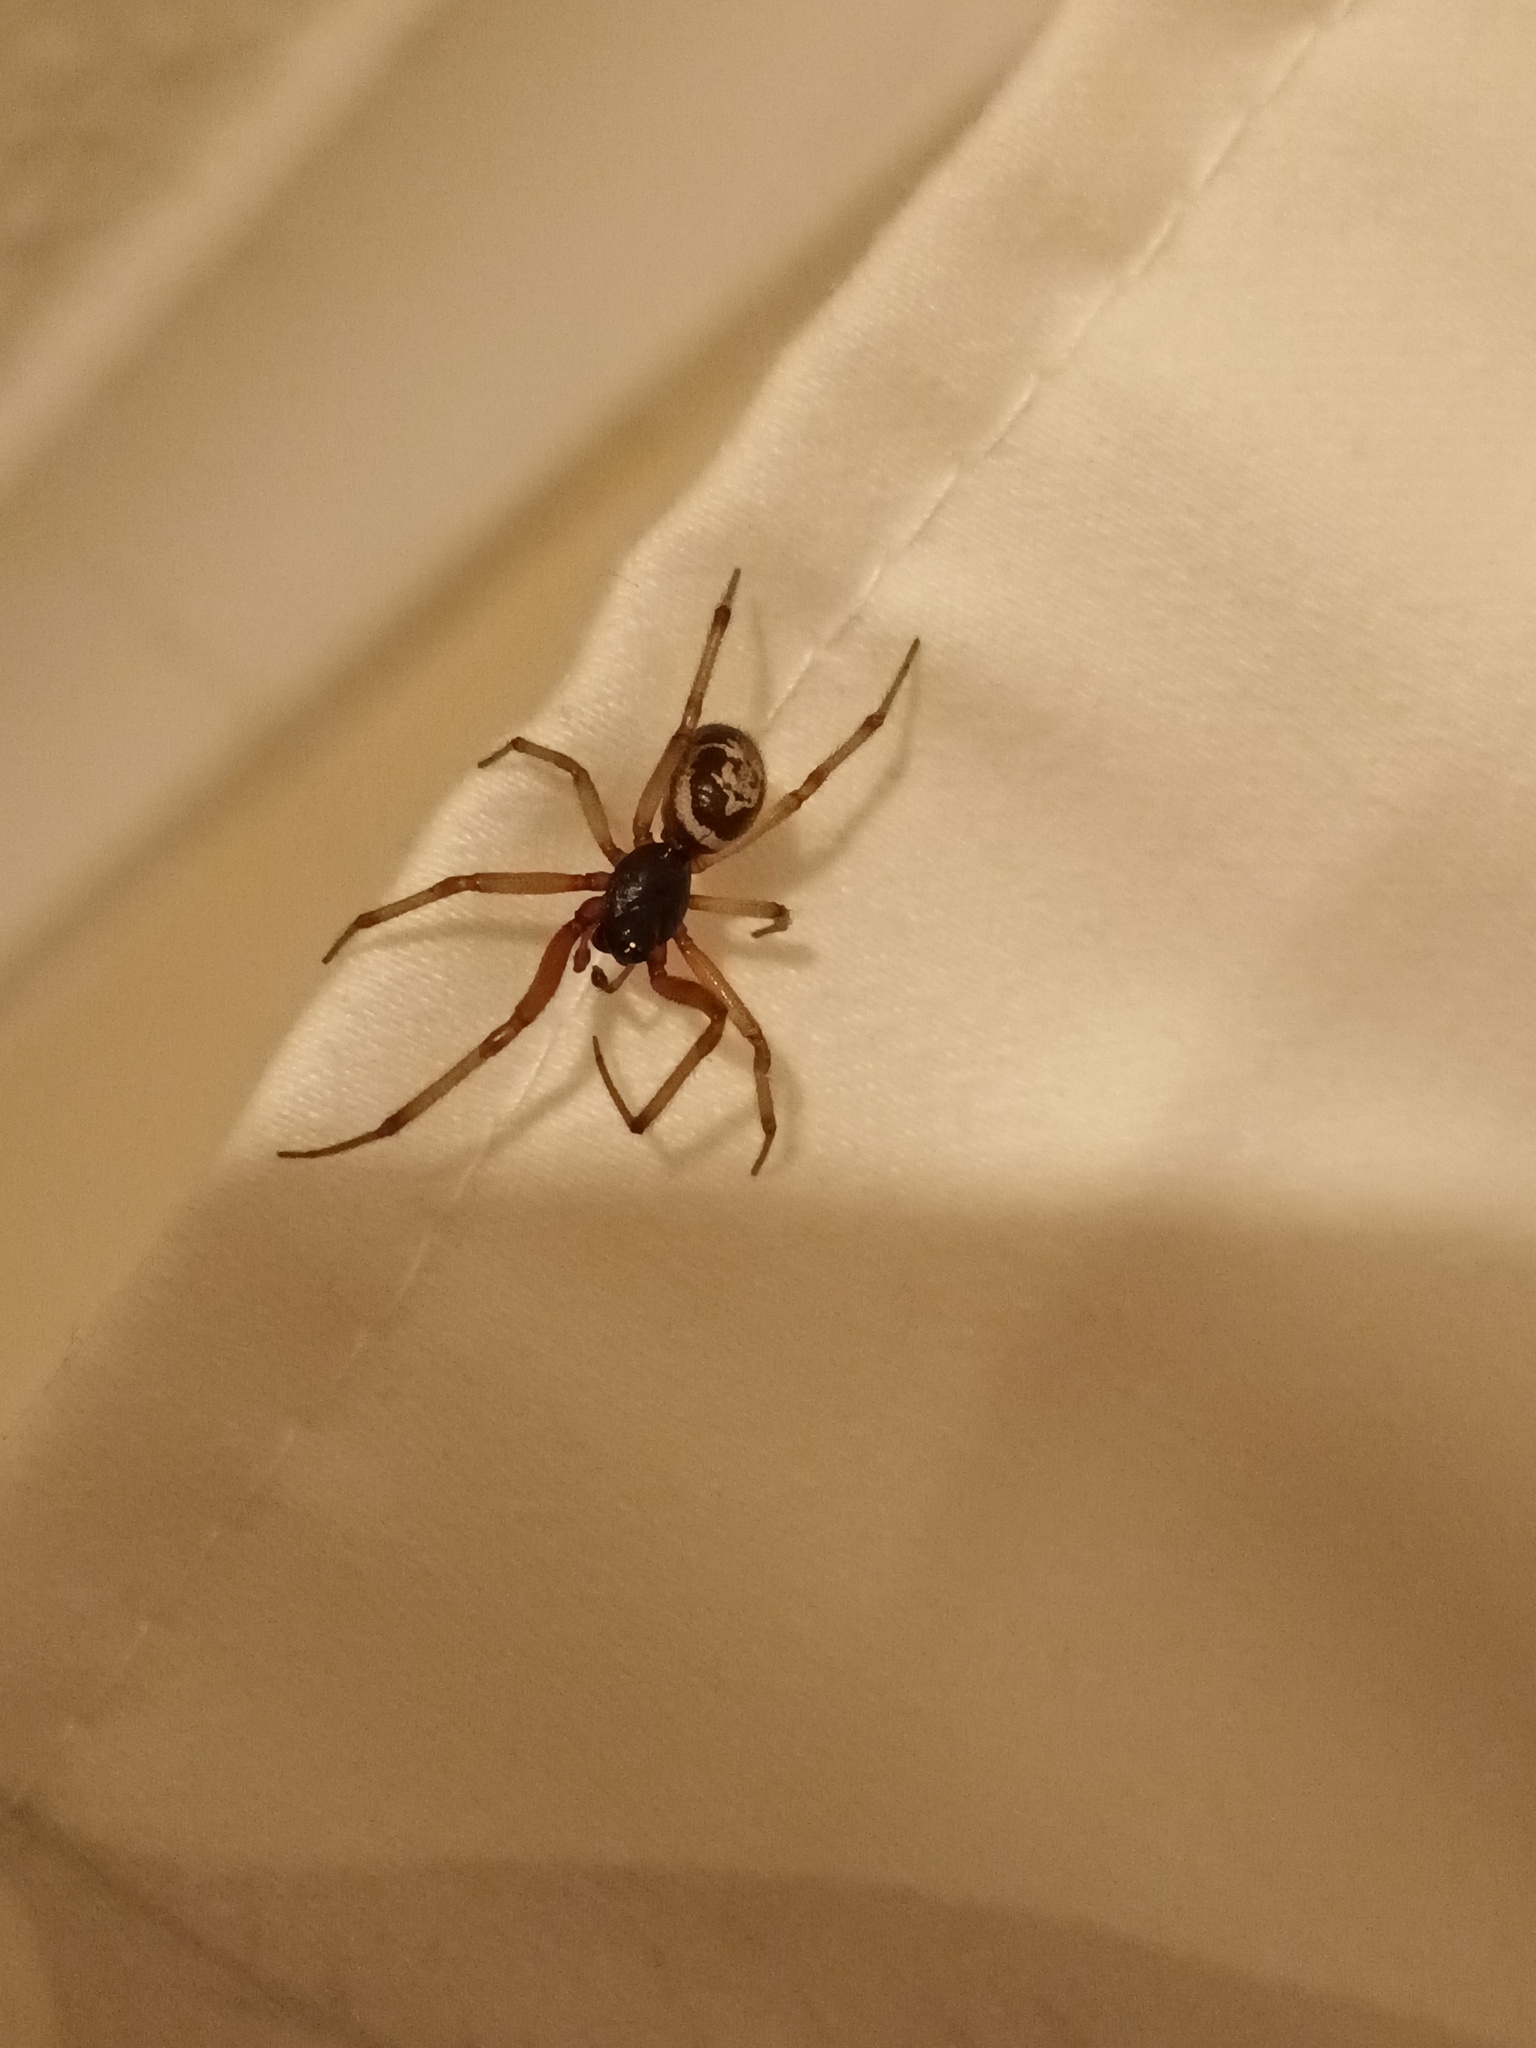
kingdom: Animalia
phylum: Arthropoda
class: Arachnida
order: Araneae
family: Theridiidae
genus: Steatoda
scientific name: Steatoda nobilis
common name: Cobweb weaver
